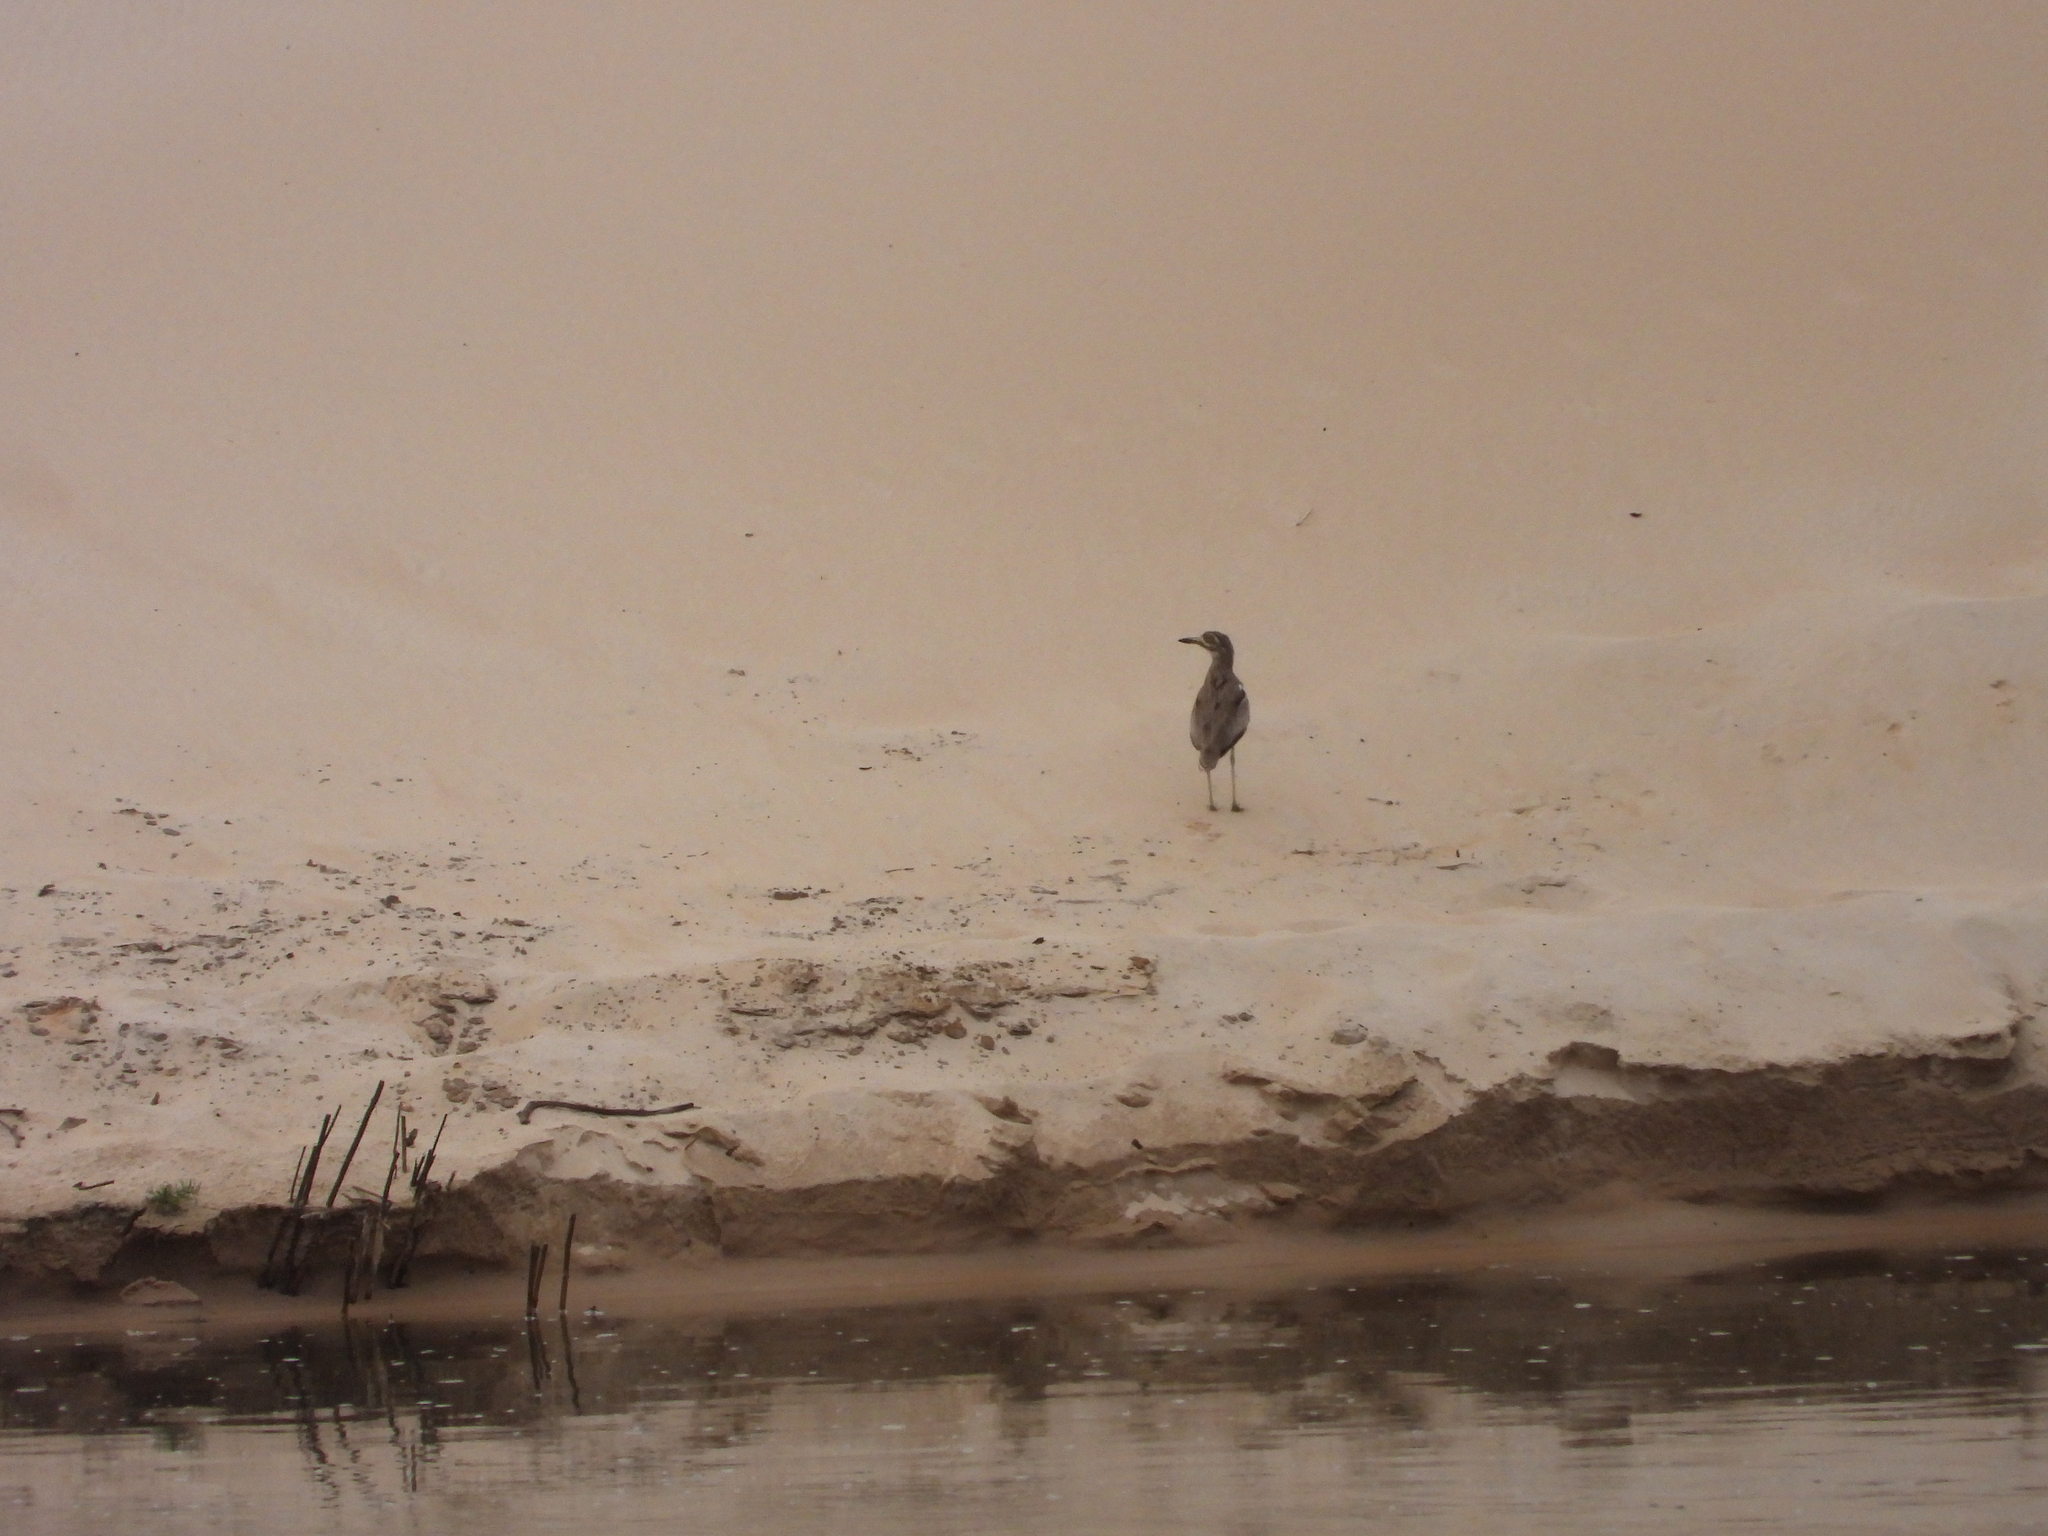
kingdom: Animalia
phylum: Chordata
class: Aves
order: Charadriiformes
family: Burhinidae
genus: Burhinus
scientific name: Burhinus vermiculatus
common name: Water thick-knee
